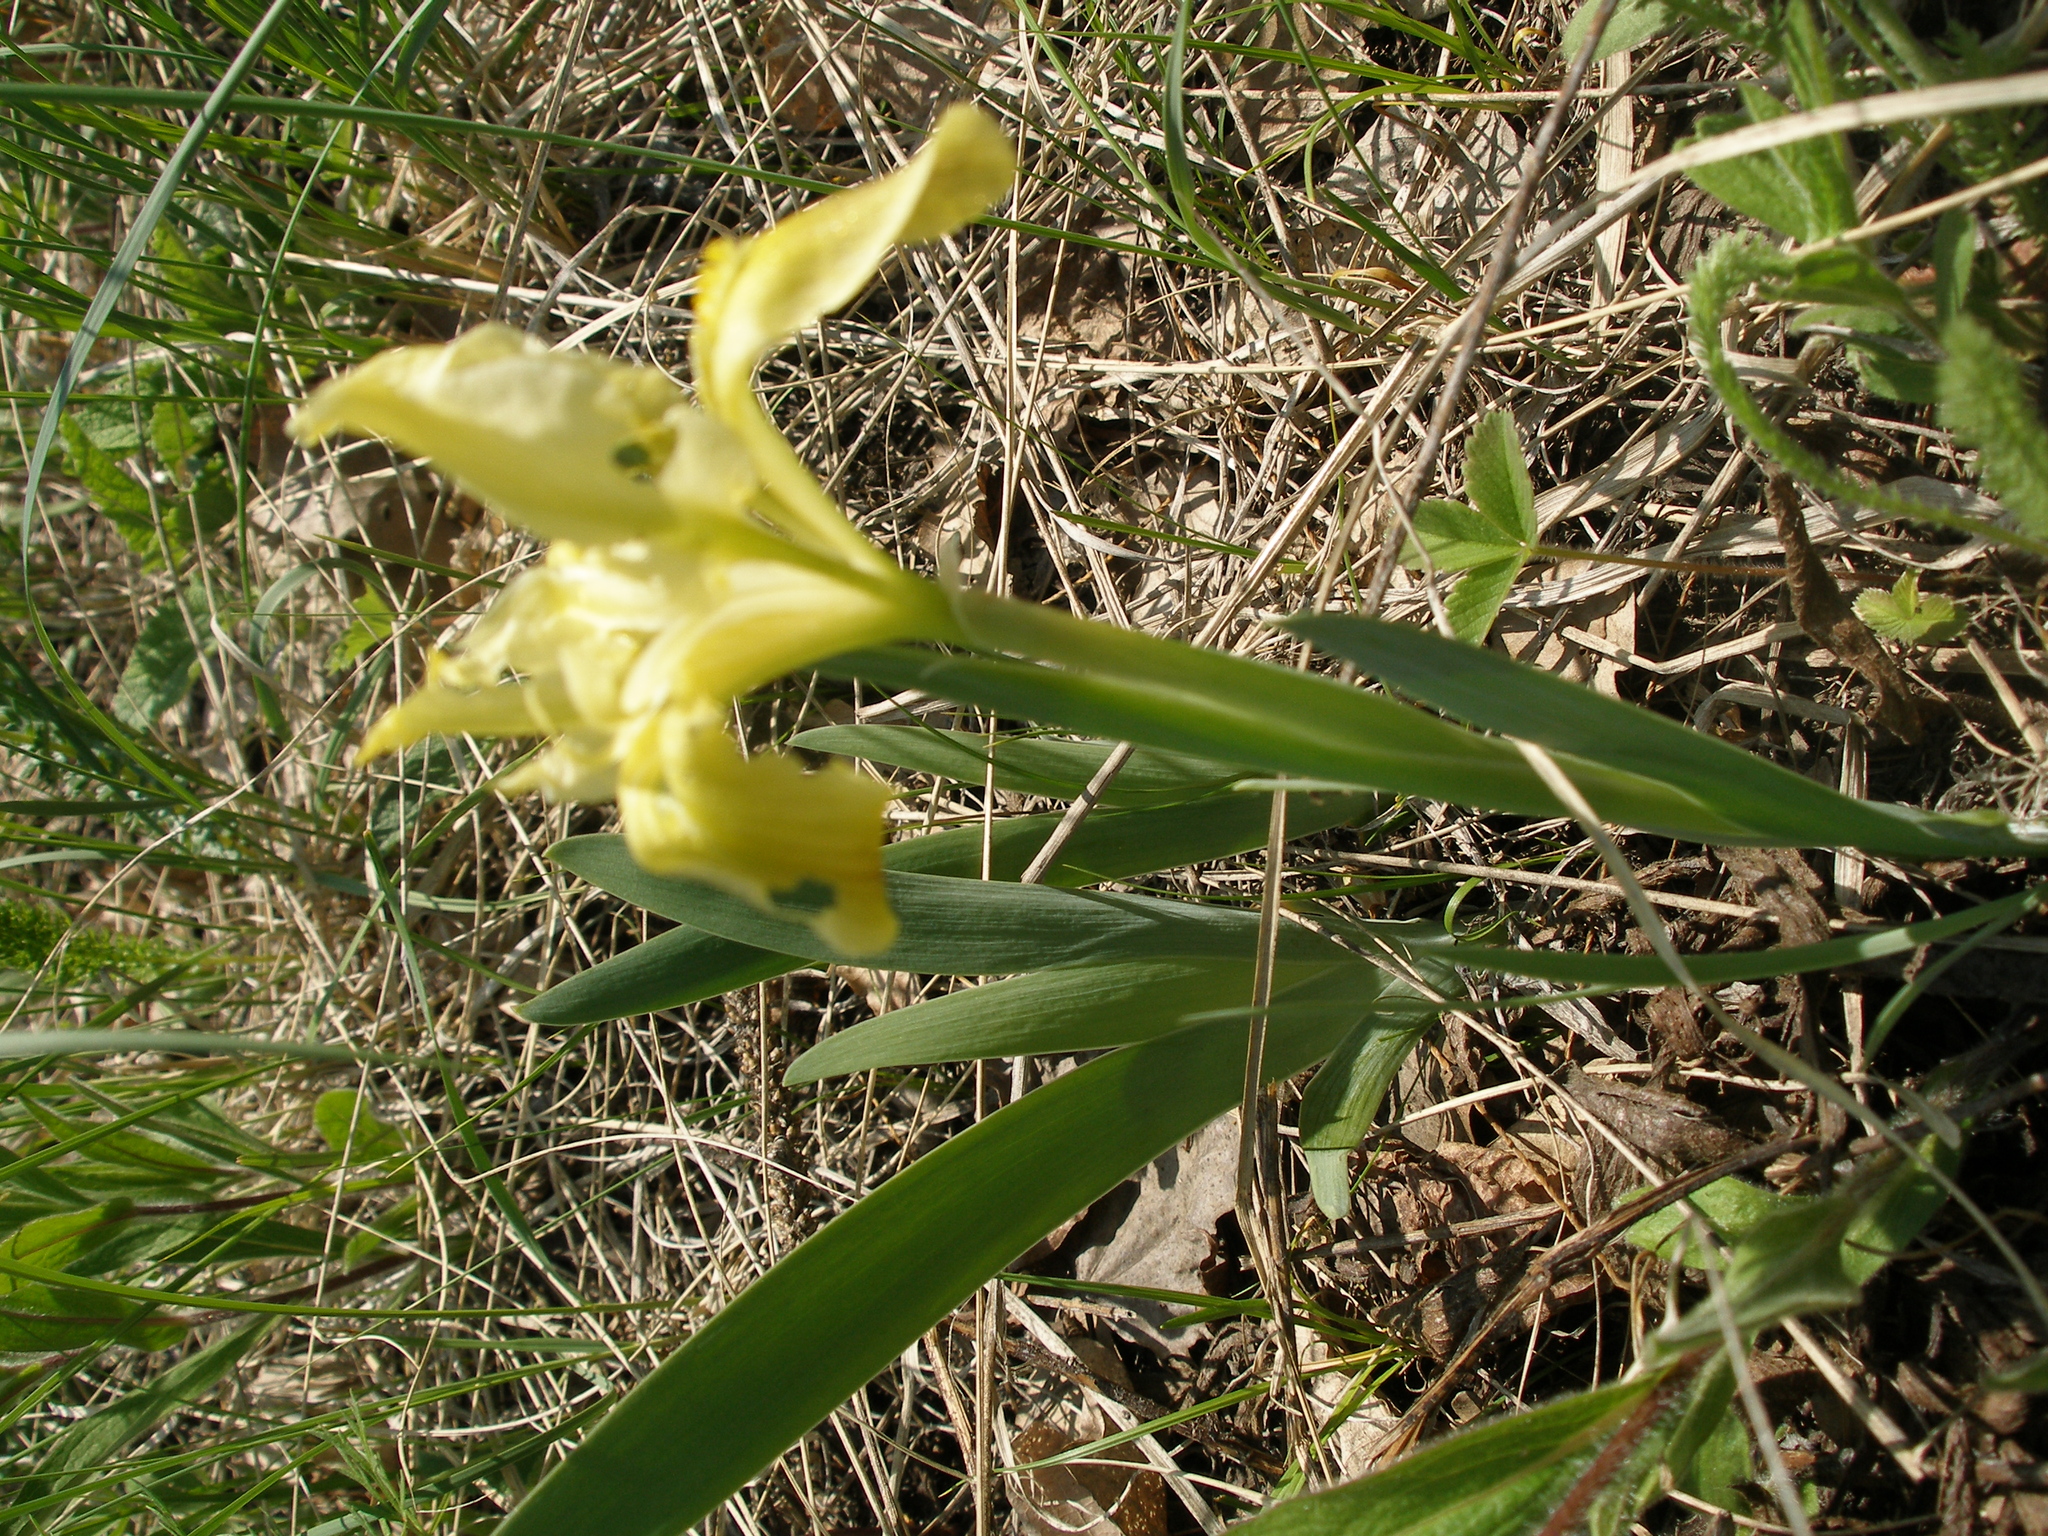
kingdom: Plantae
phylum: Tracheophyta
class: Liliopsida
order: Asparagales
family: Iridaceae
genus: Iris
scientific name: Iris pumila
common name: Dwarf iris
